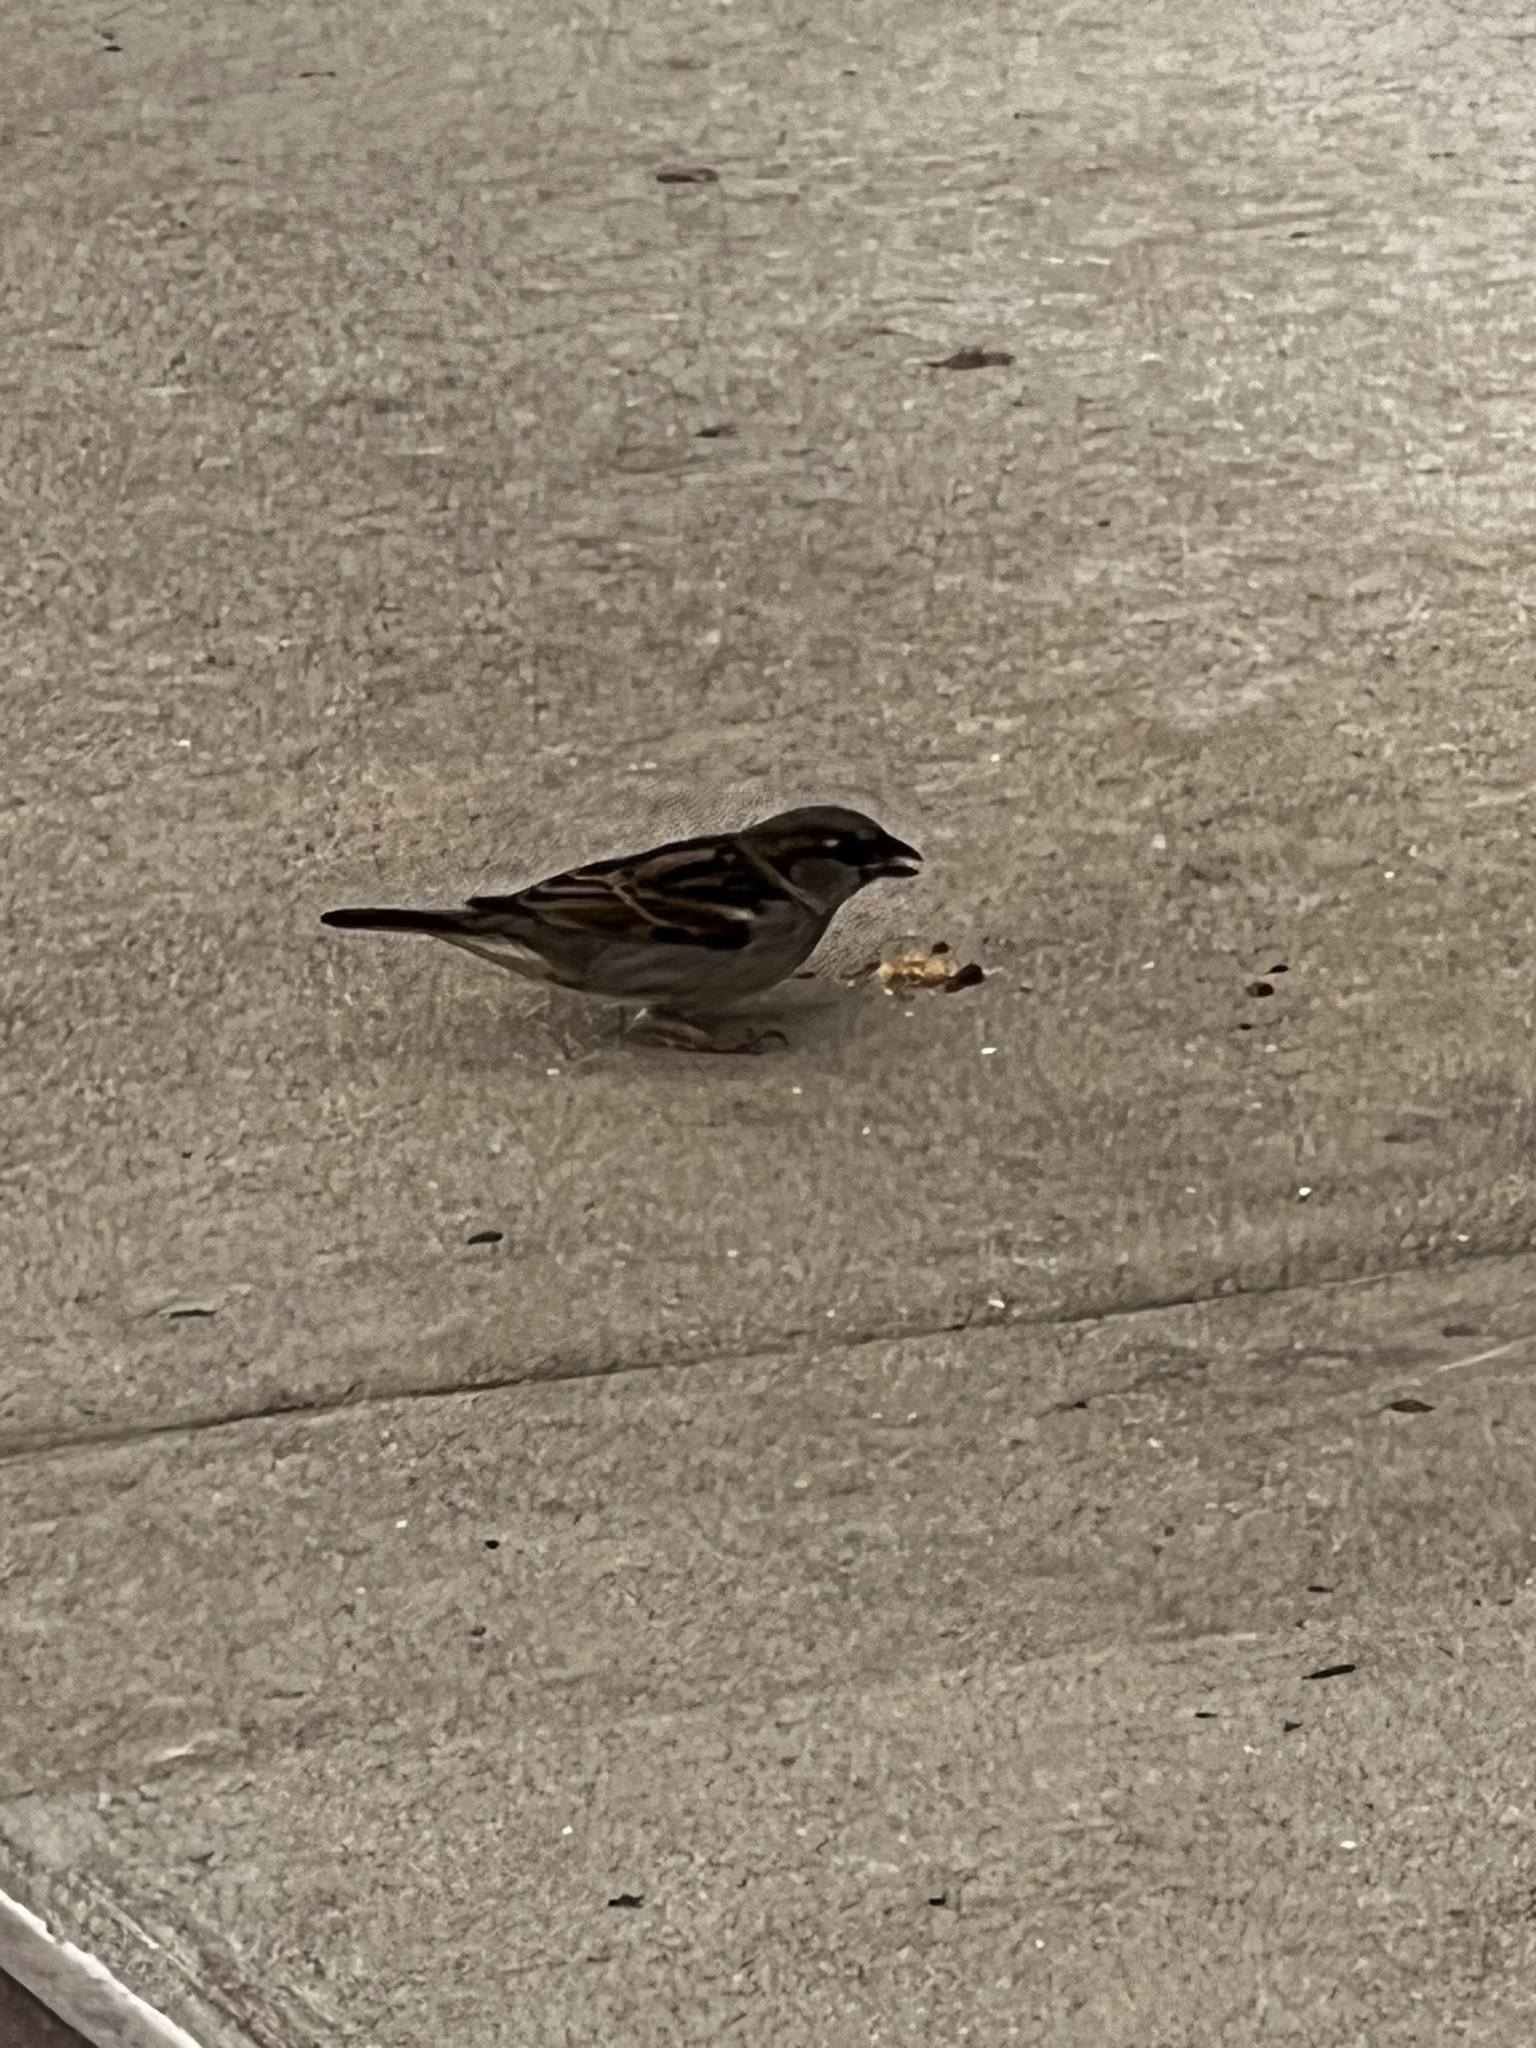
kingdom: Animalia
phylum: Chordata
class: Aves
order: Passeriformes
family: Passeridae
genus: Passer
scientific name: Passer domesticus
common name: House sparrow
